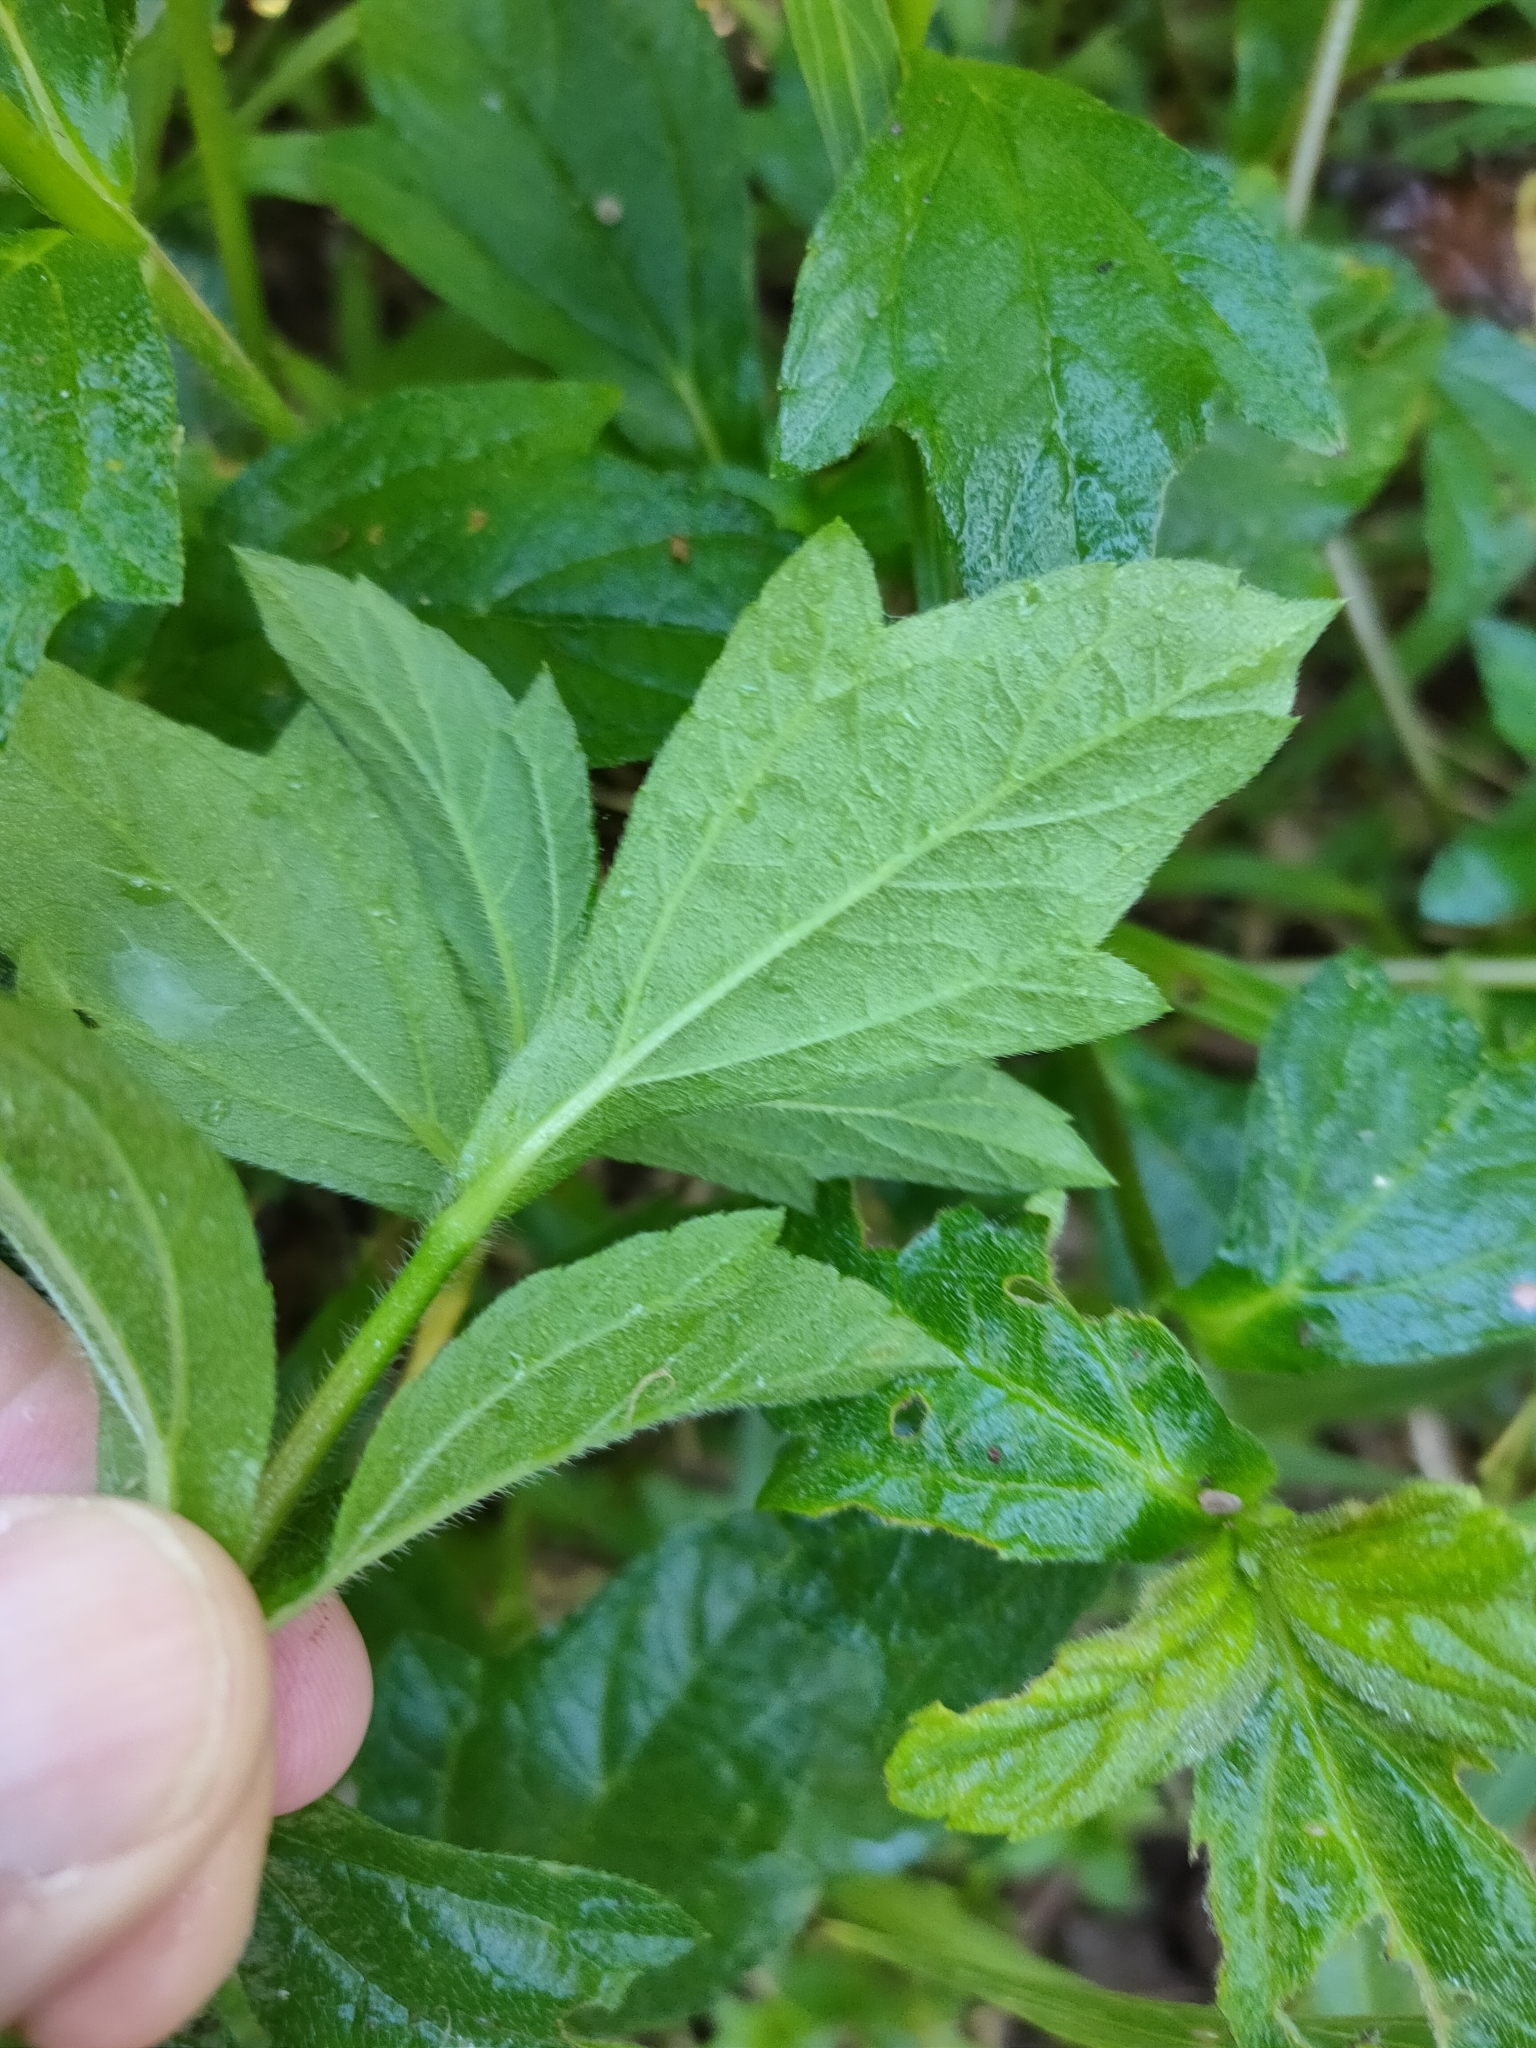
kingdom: Plantae
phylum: Tracheophyta
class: Magnoliopsida
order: Asterales
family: Asteraceae
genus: Sphagneticola
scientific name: Sphagneticola trilobata
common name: Bay biscayne creeping-oxeye
